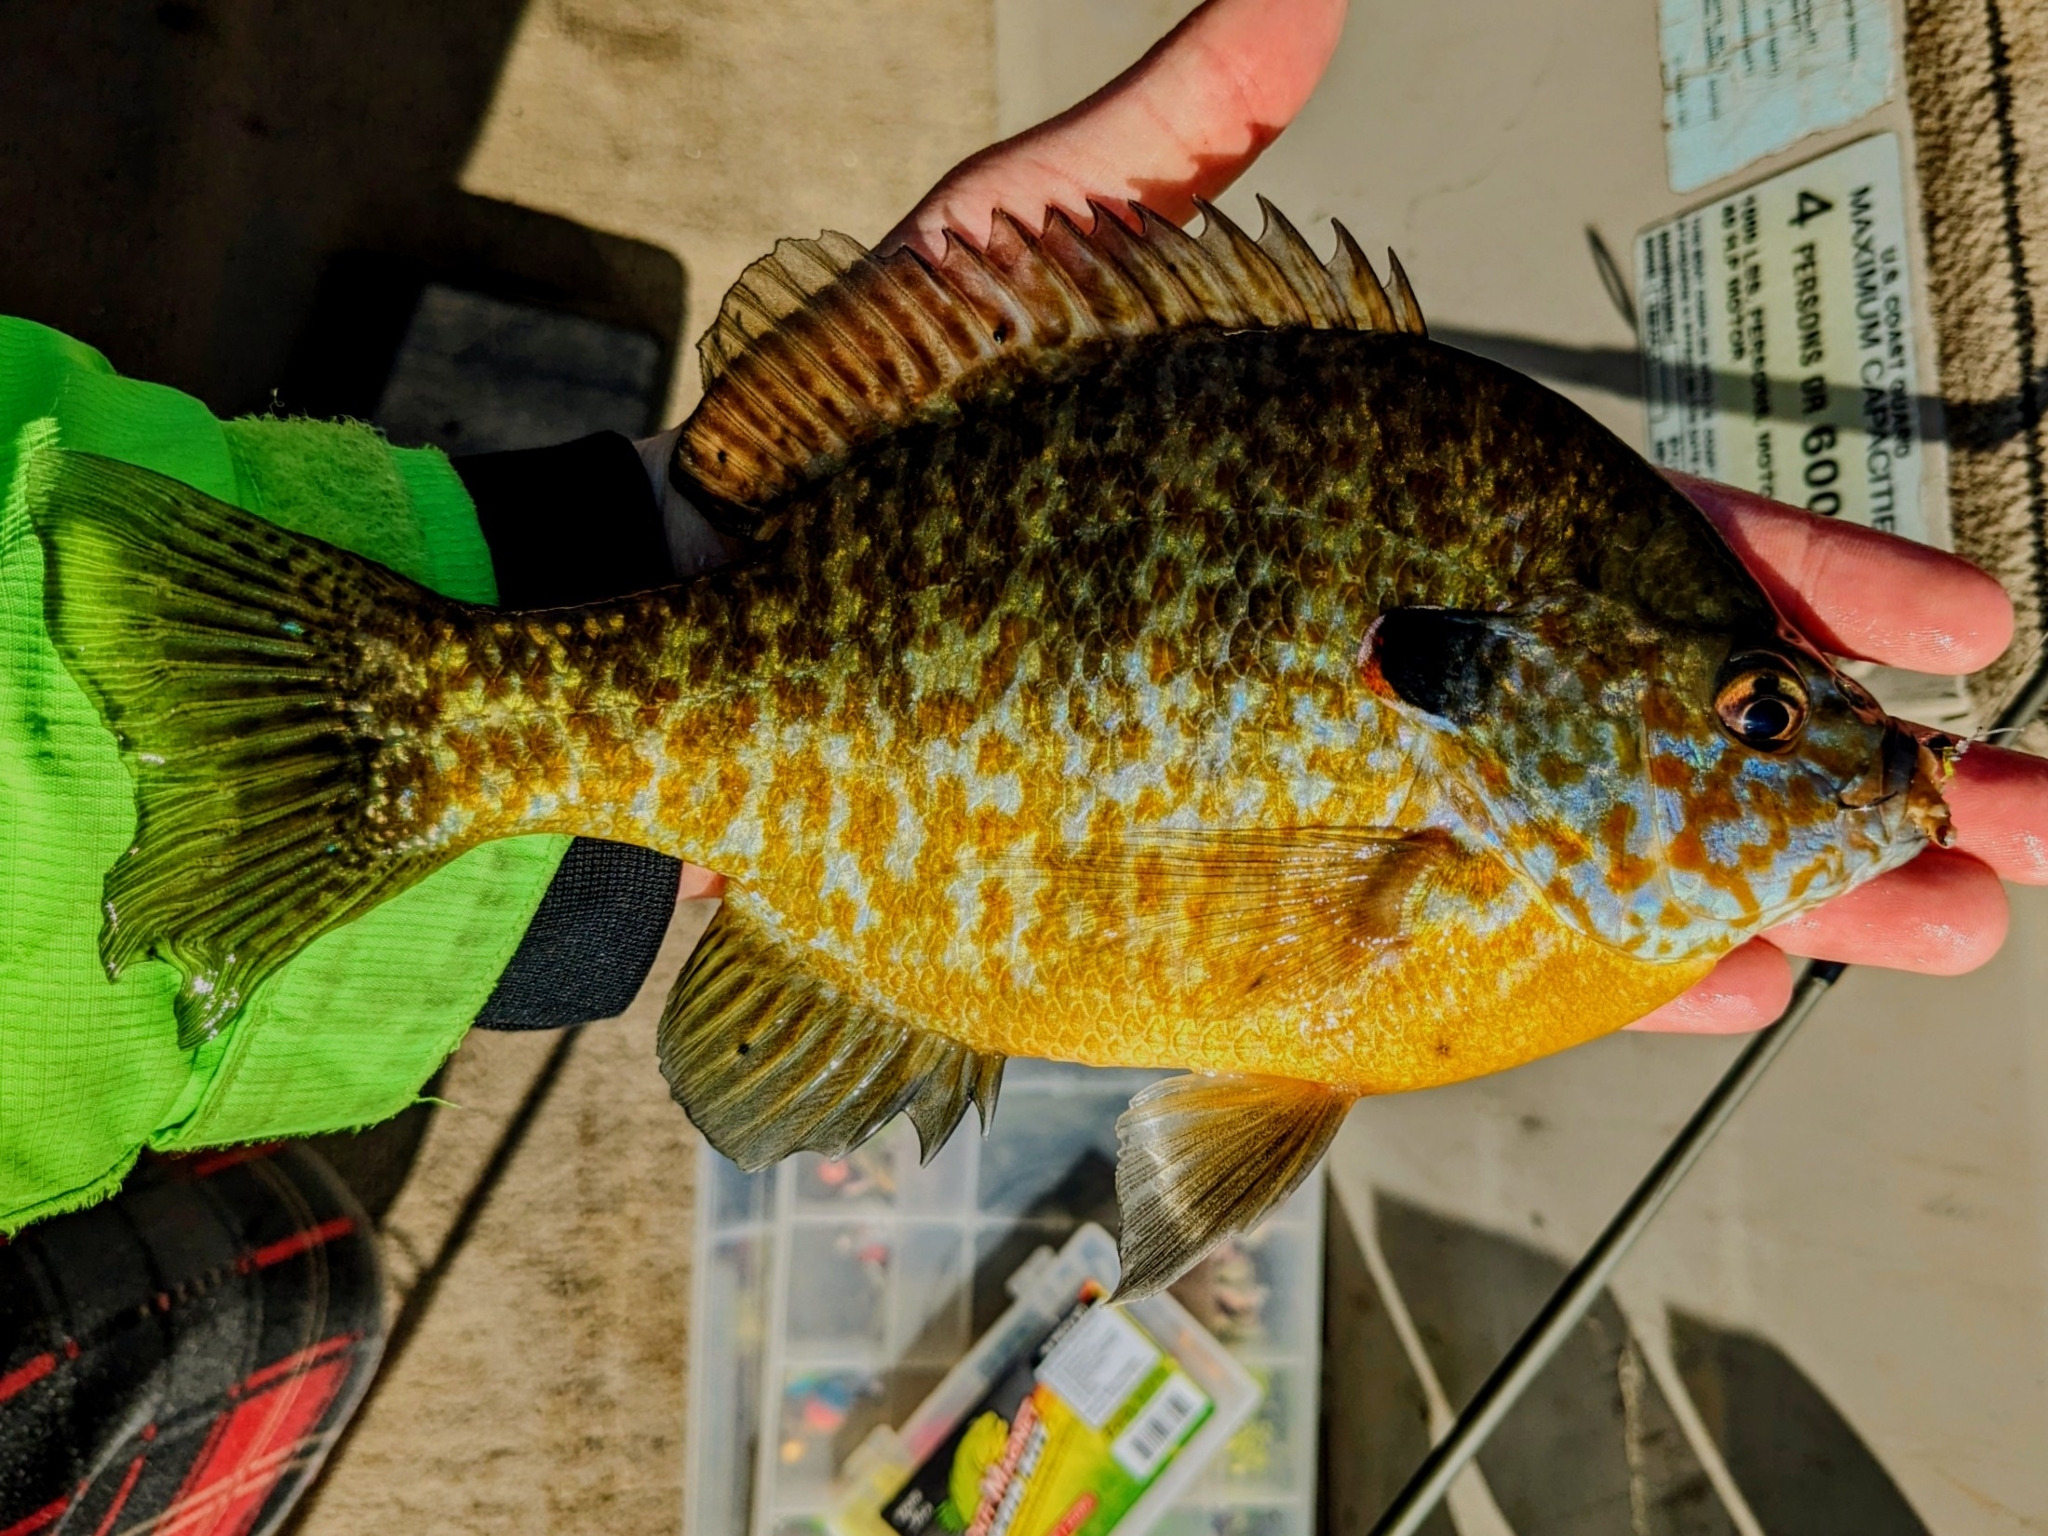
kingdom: Animalia
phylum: Chordata
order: Perciformes
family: Centrarchidae
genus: Lepomis
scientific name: Lepomis
